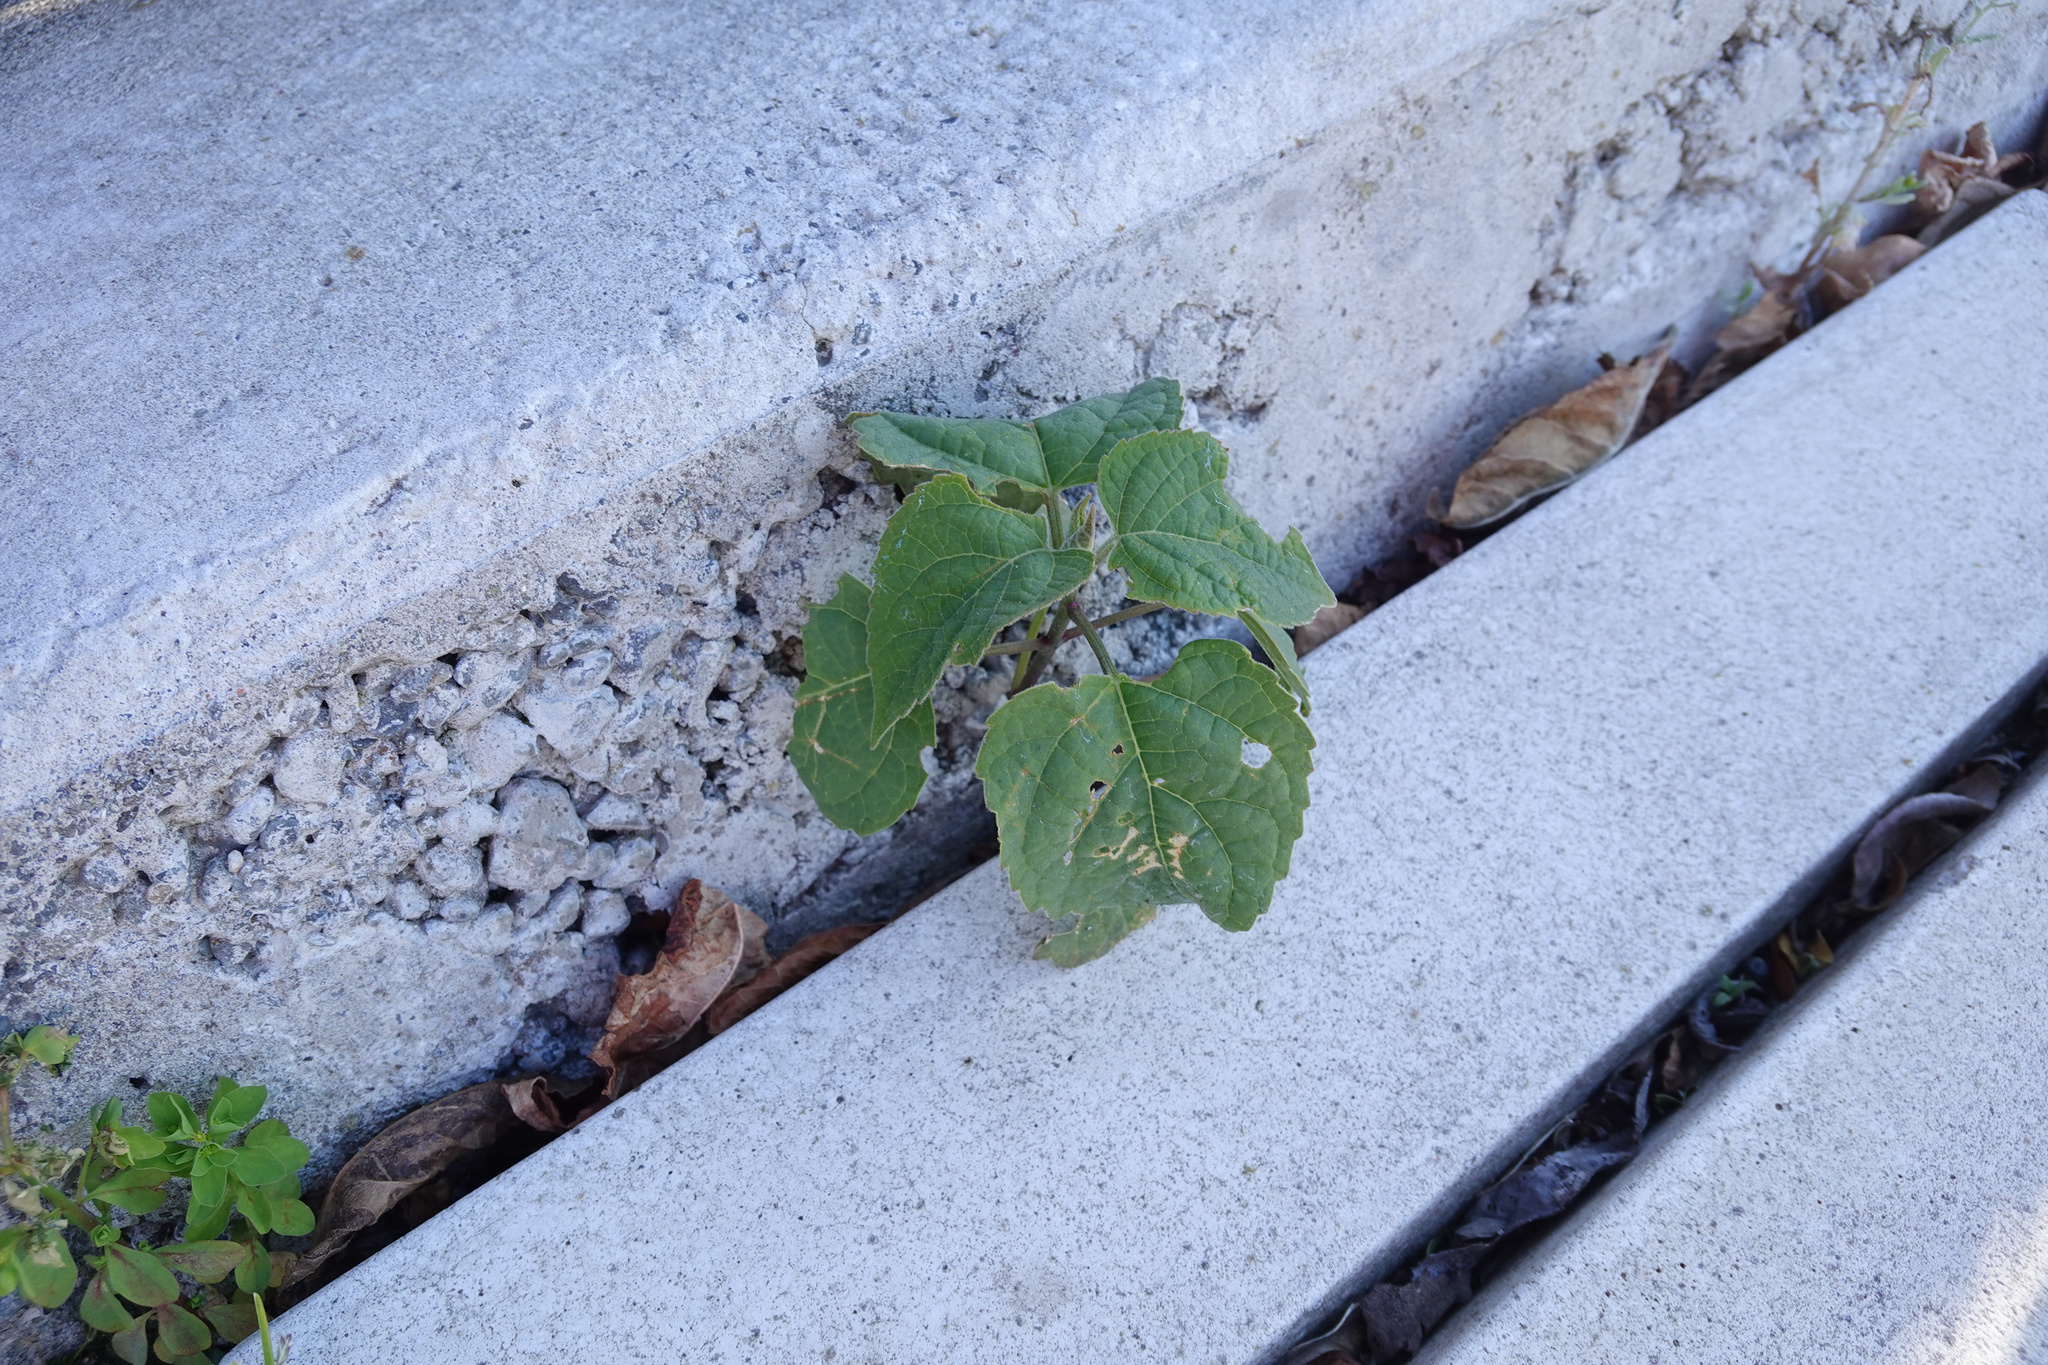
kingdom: Plantae
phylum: Tracheophyta
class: Magnoliopsida
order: Lamiales
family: Lamiaceae
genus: Clerodendrum
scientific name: Clerodendrum trichotomum
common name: Harlequin glorybower
